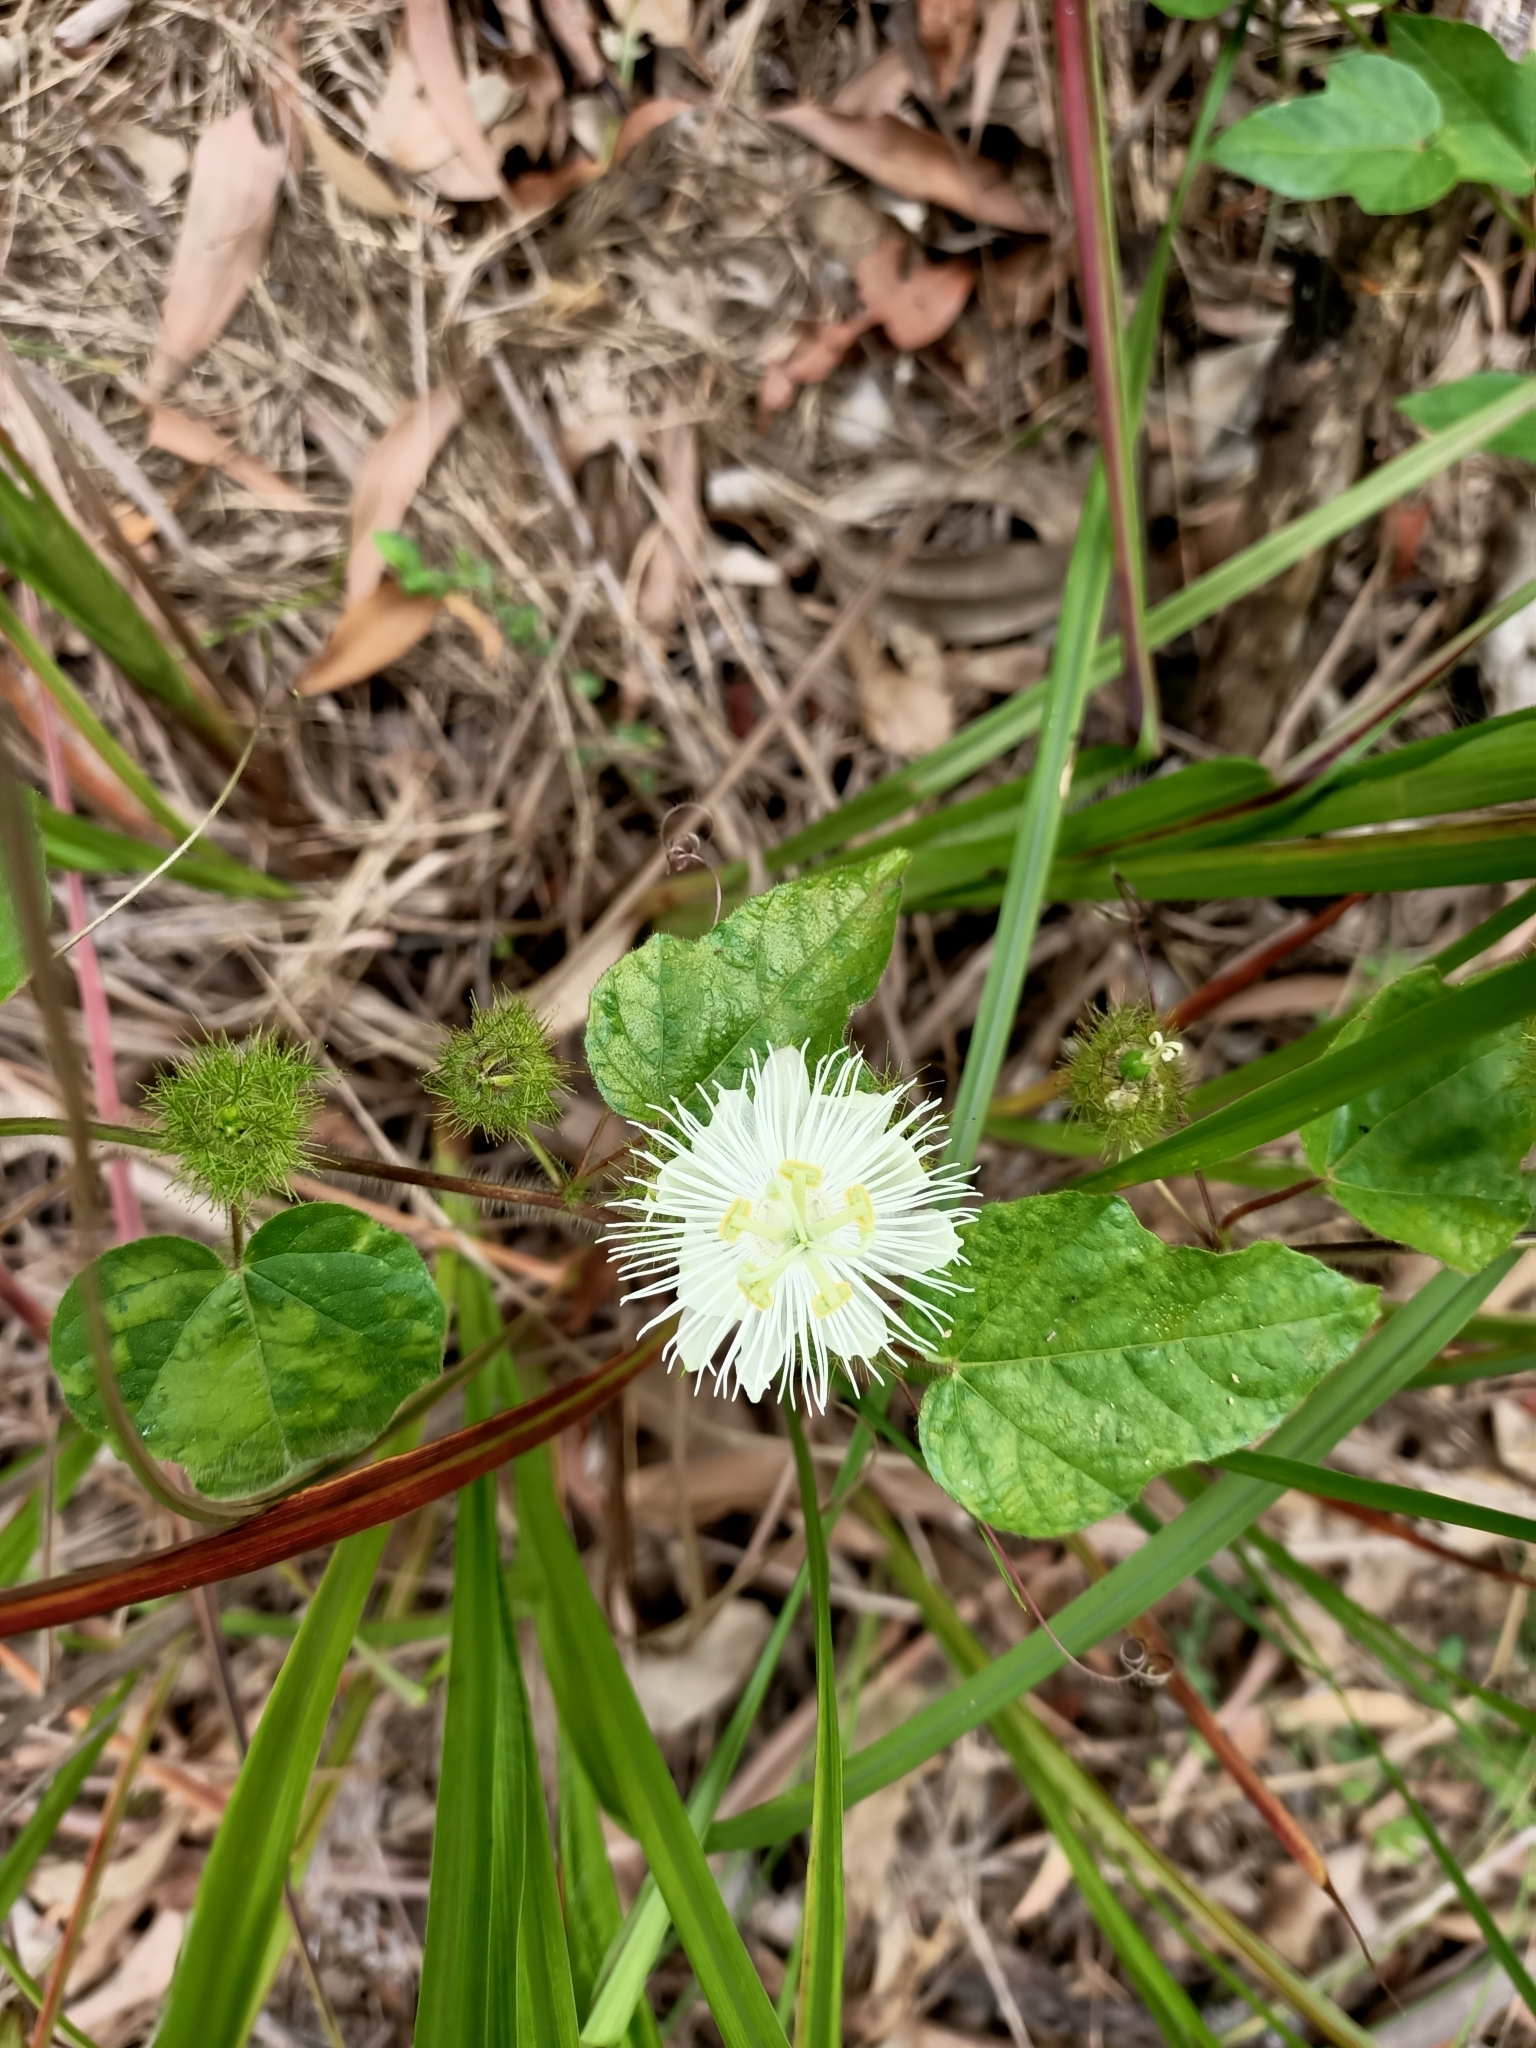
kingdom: Plantae
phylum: Tracheophyta
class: Magnoliopsida
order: Malpighiales
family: Passifloraceae
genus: Passiflora
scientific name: Passiflora foetida
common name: Fetid passionflower
